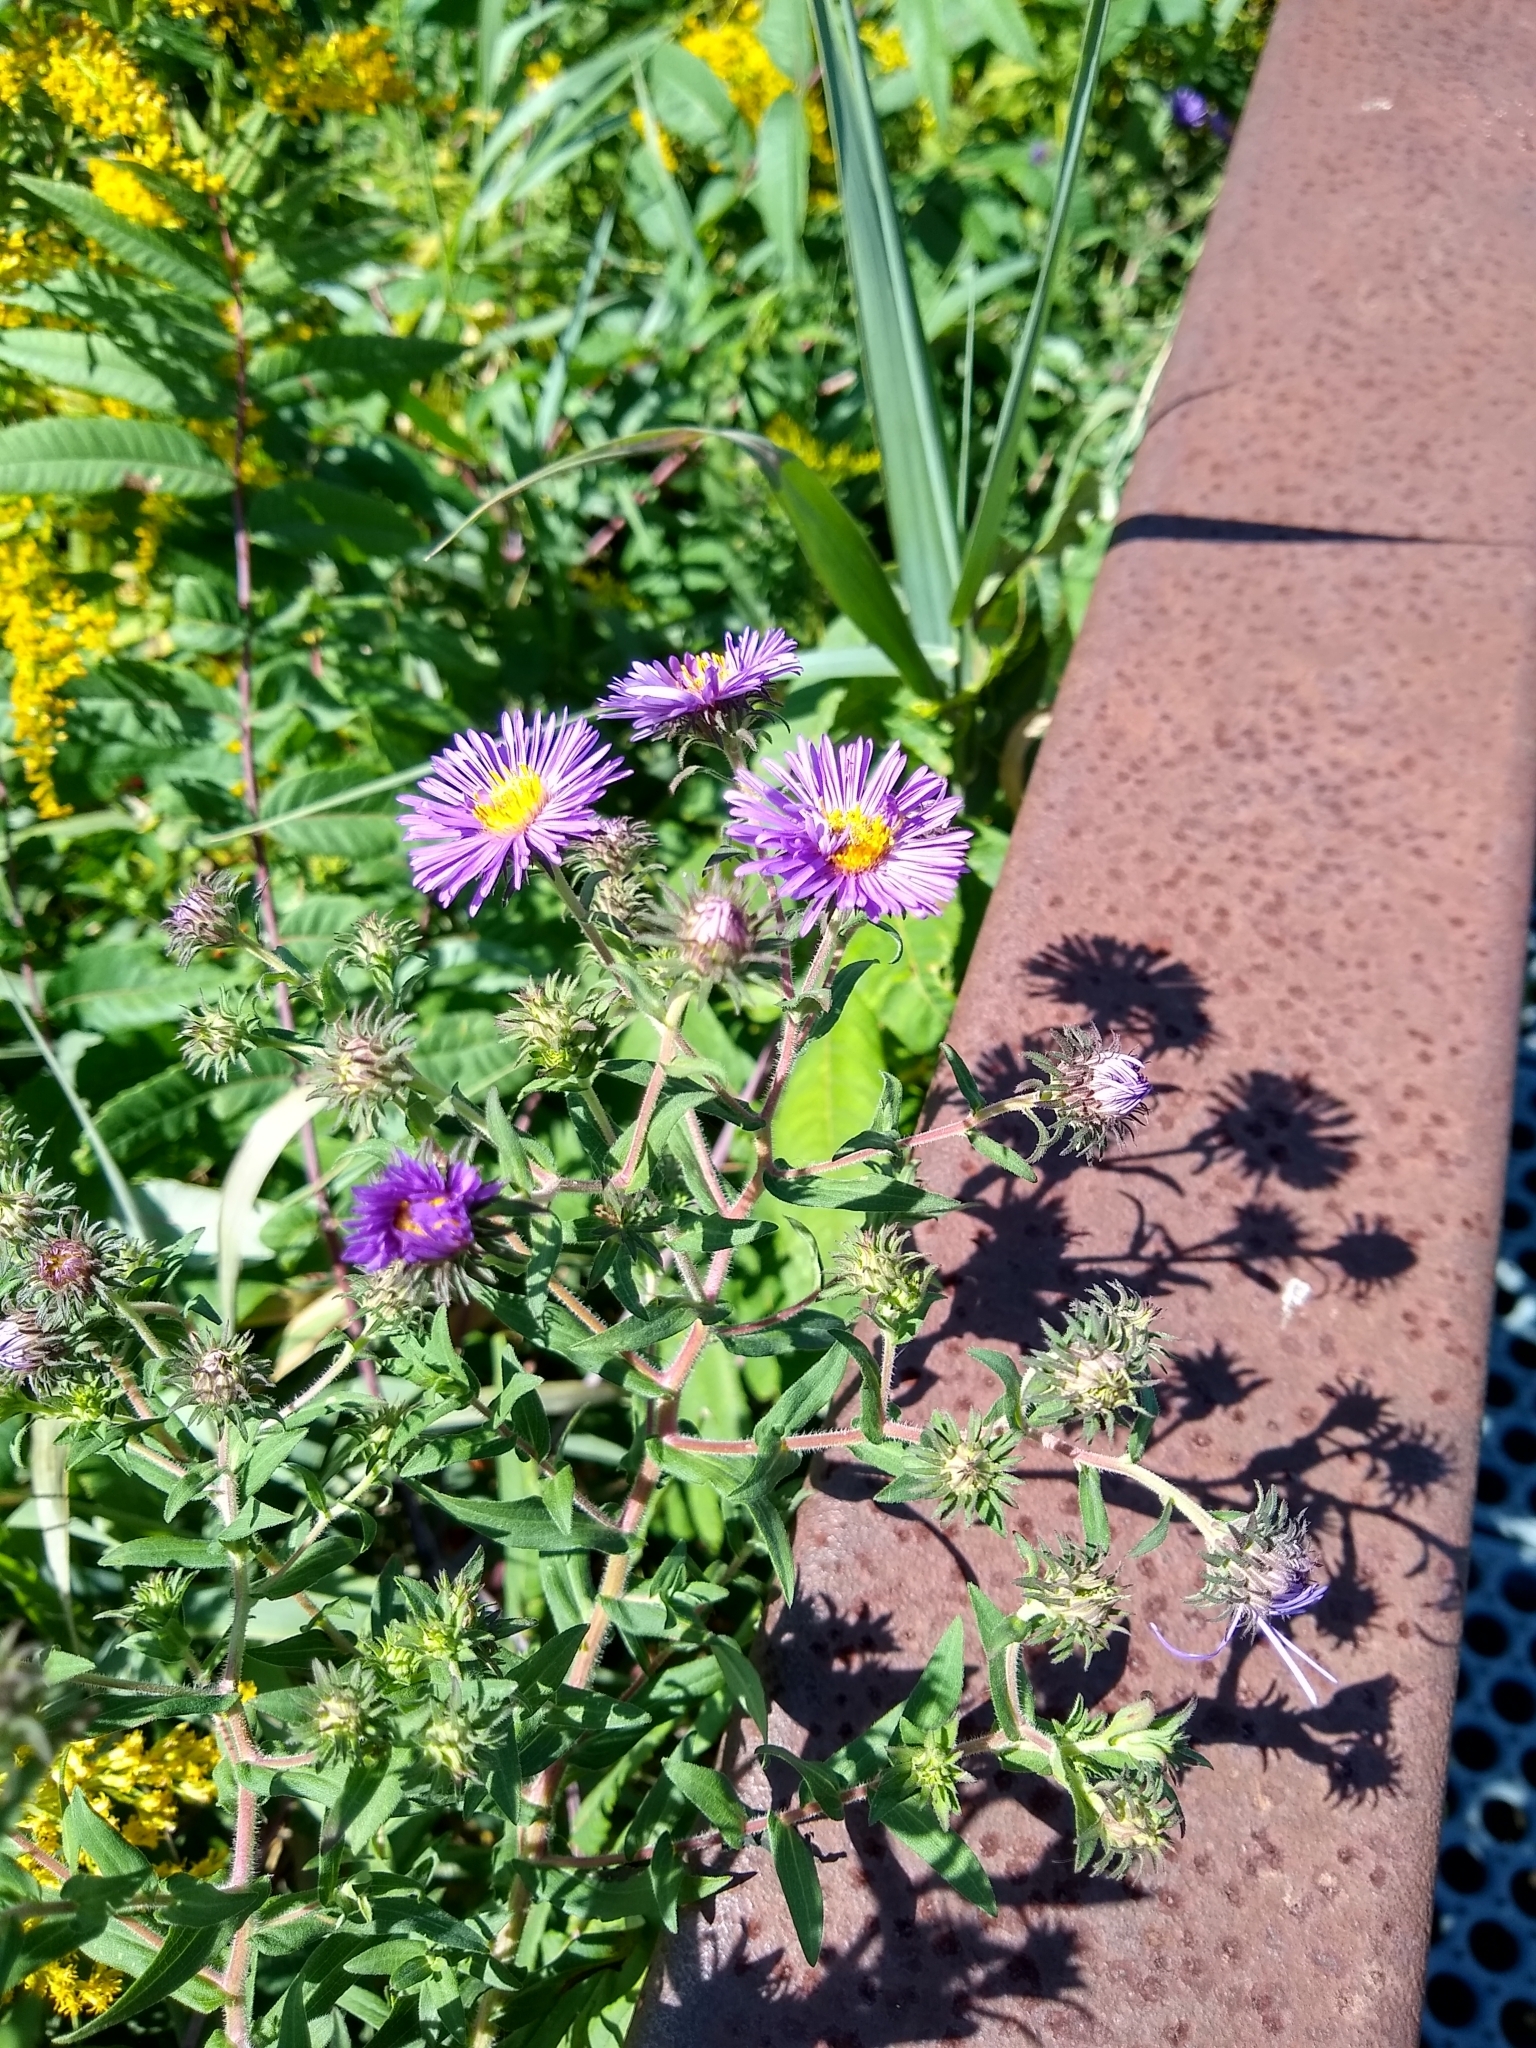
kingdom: Plantae
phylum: Tracheophyta
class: Magnoliopsida
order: Asterales
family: Asteraceae
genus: Symphyotrichum
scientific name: Symphyotrichum novae-angliae
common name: Michaelmas daisy
